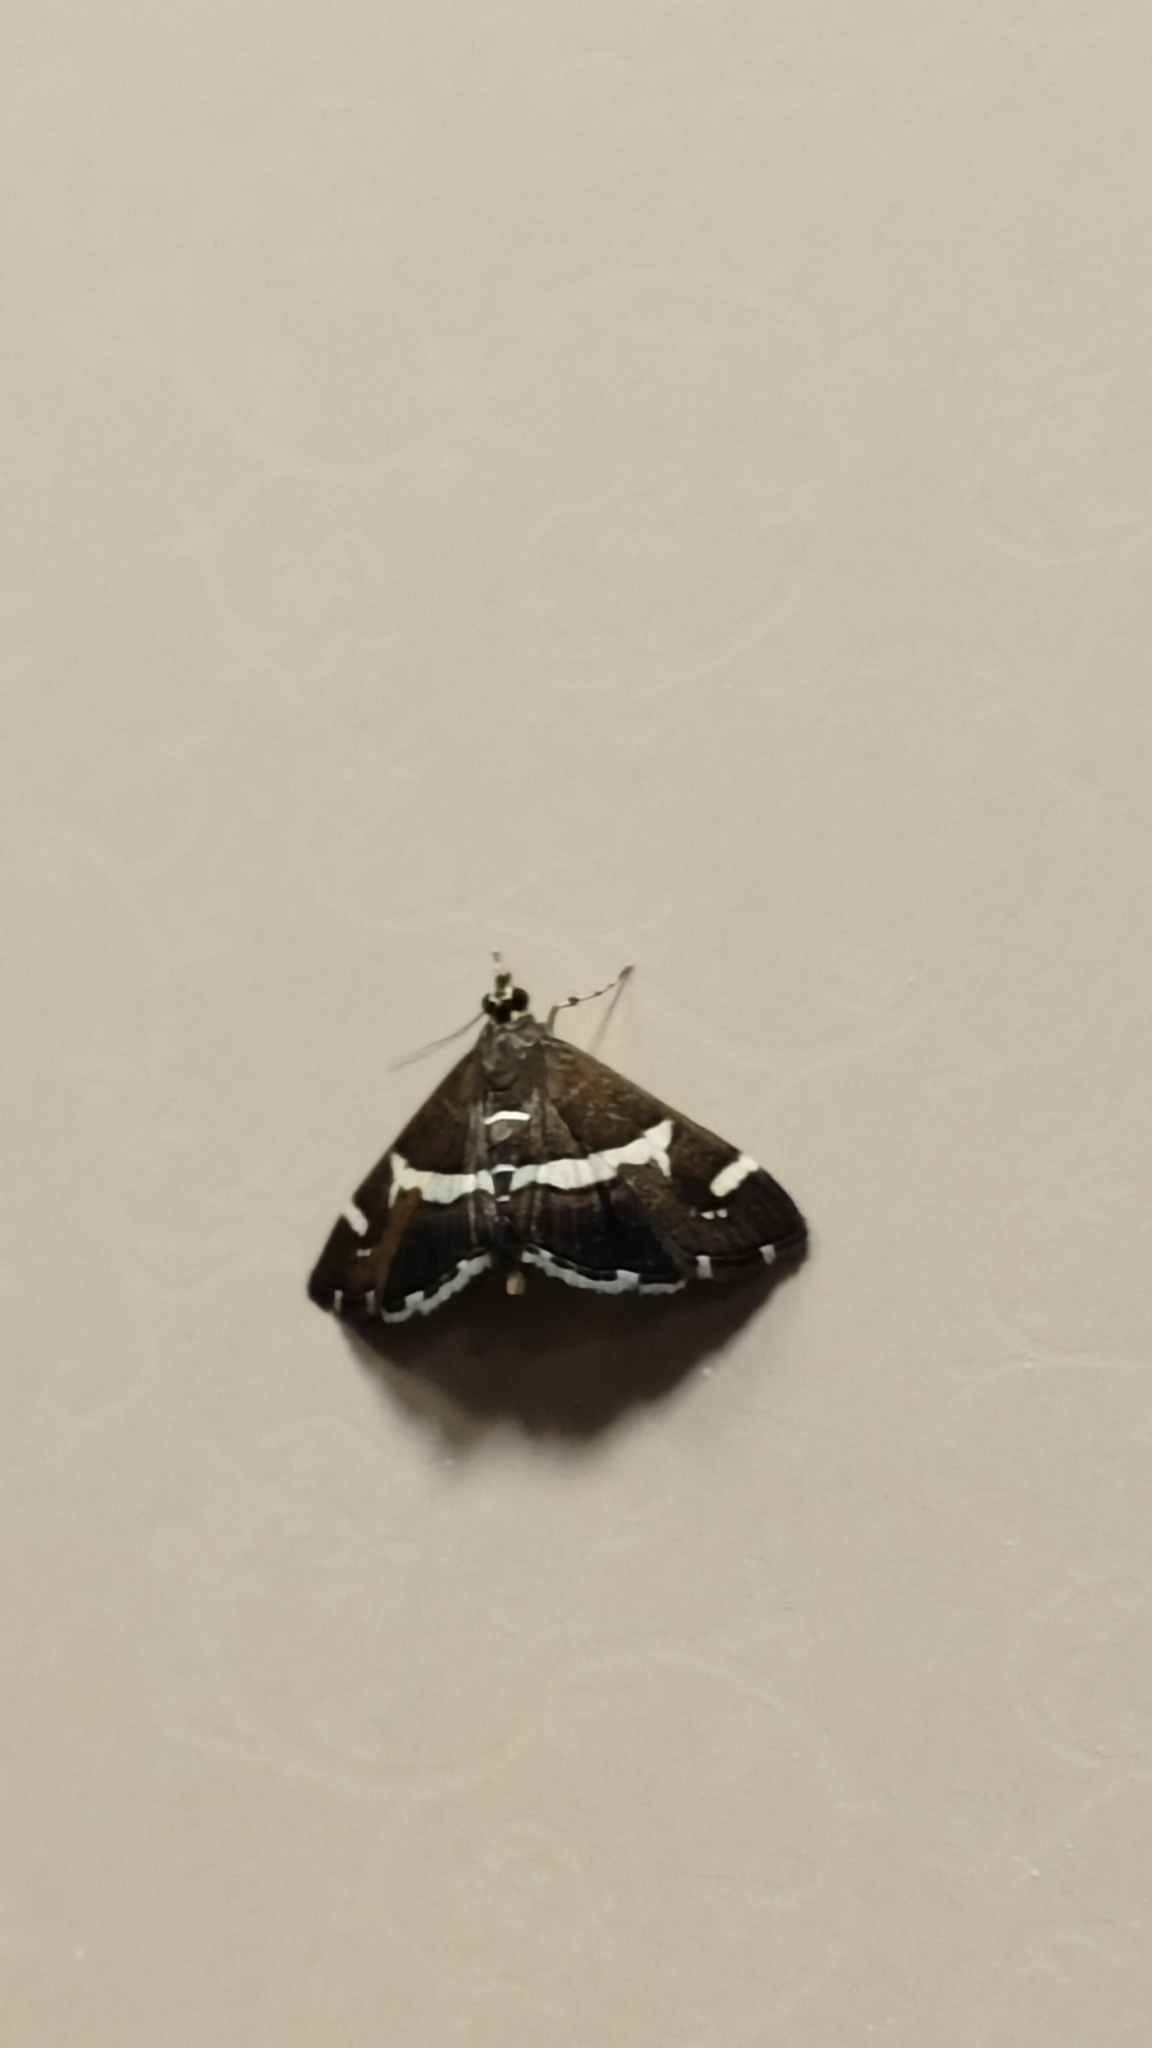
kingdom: Animalia
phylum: Arthropoda
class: Insecta
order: Lepidoptera
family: Crambidae
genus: Spoladea
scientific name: Spoladea recurvalis
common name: Beet webworm moth
